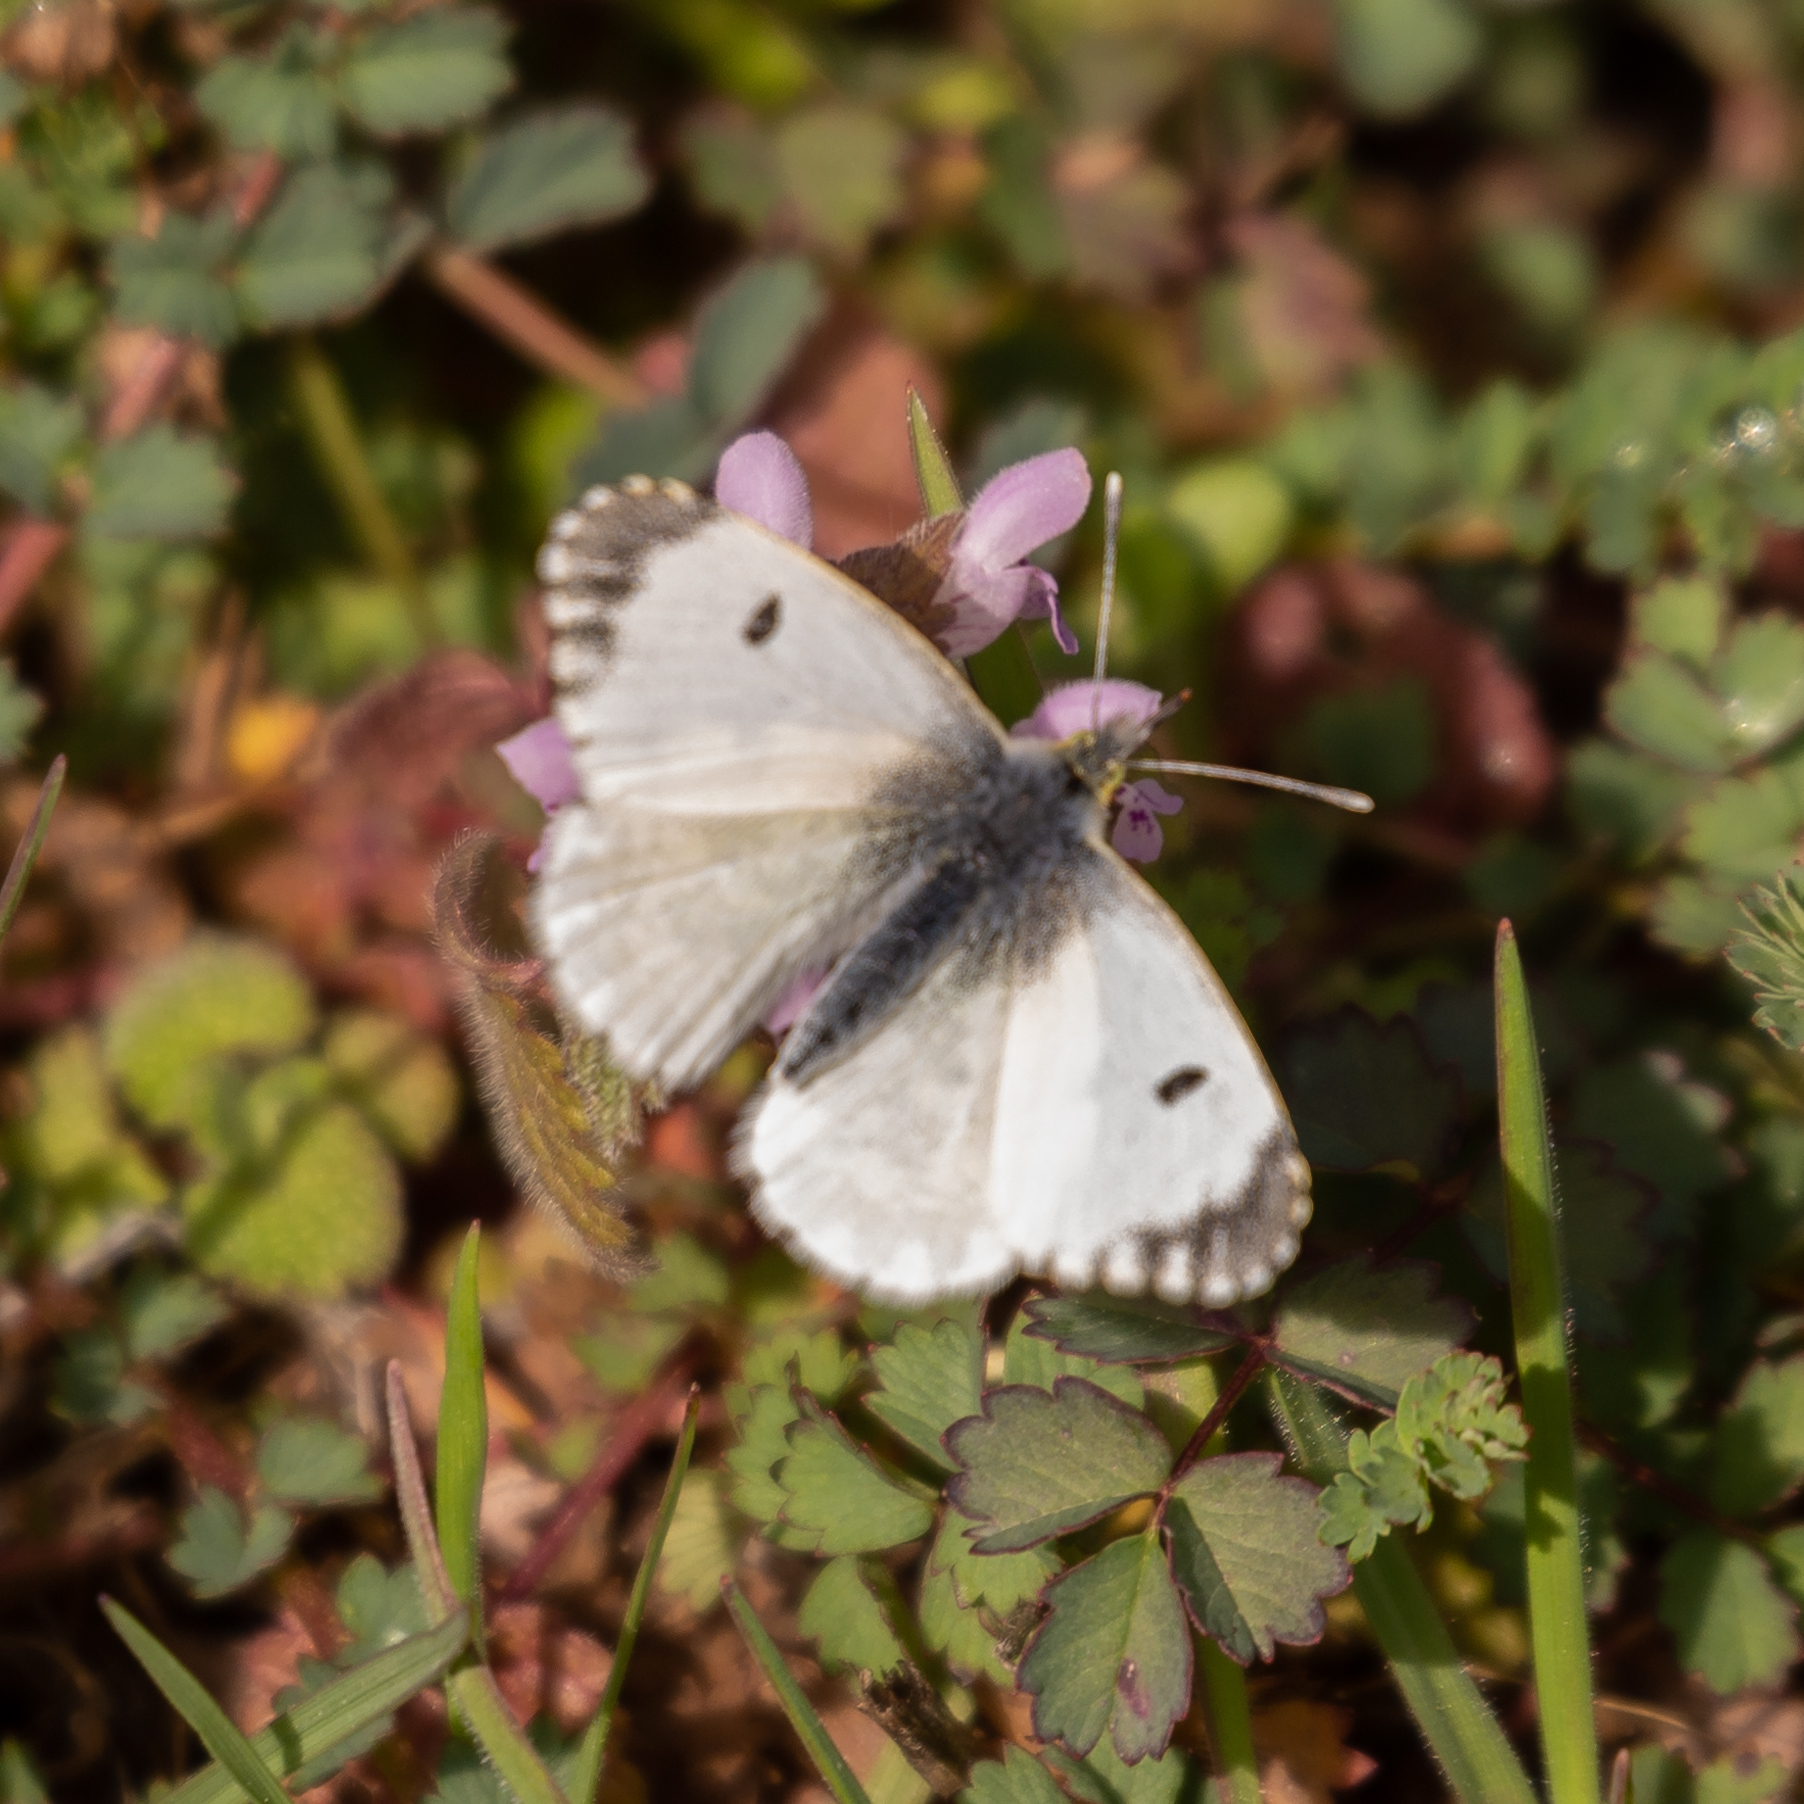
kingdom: Animalia
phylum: Arthropoda
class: Insecta
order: Lepidoptera
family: Pieridae
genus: Euchloe
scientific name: Euchloe crameri
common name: Western dappled white
